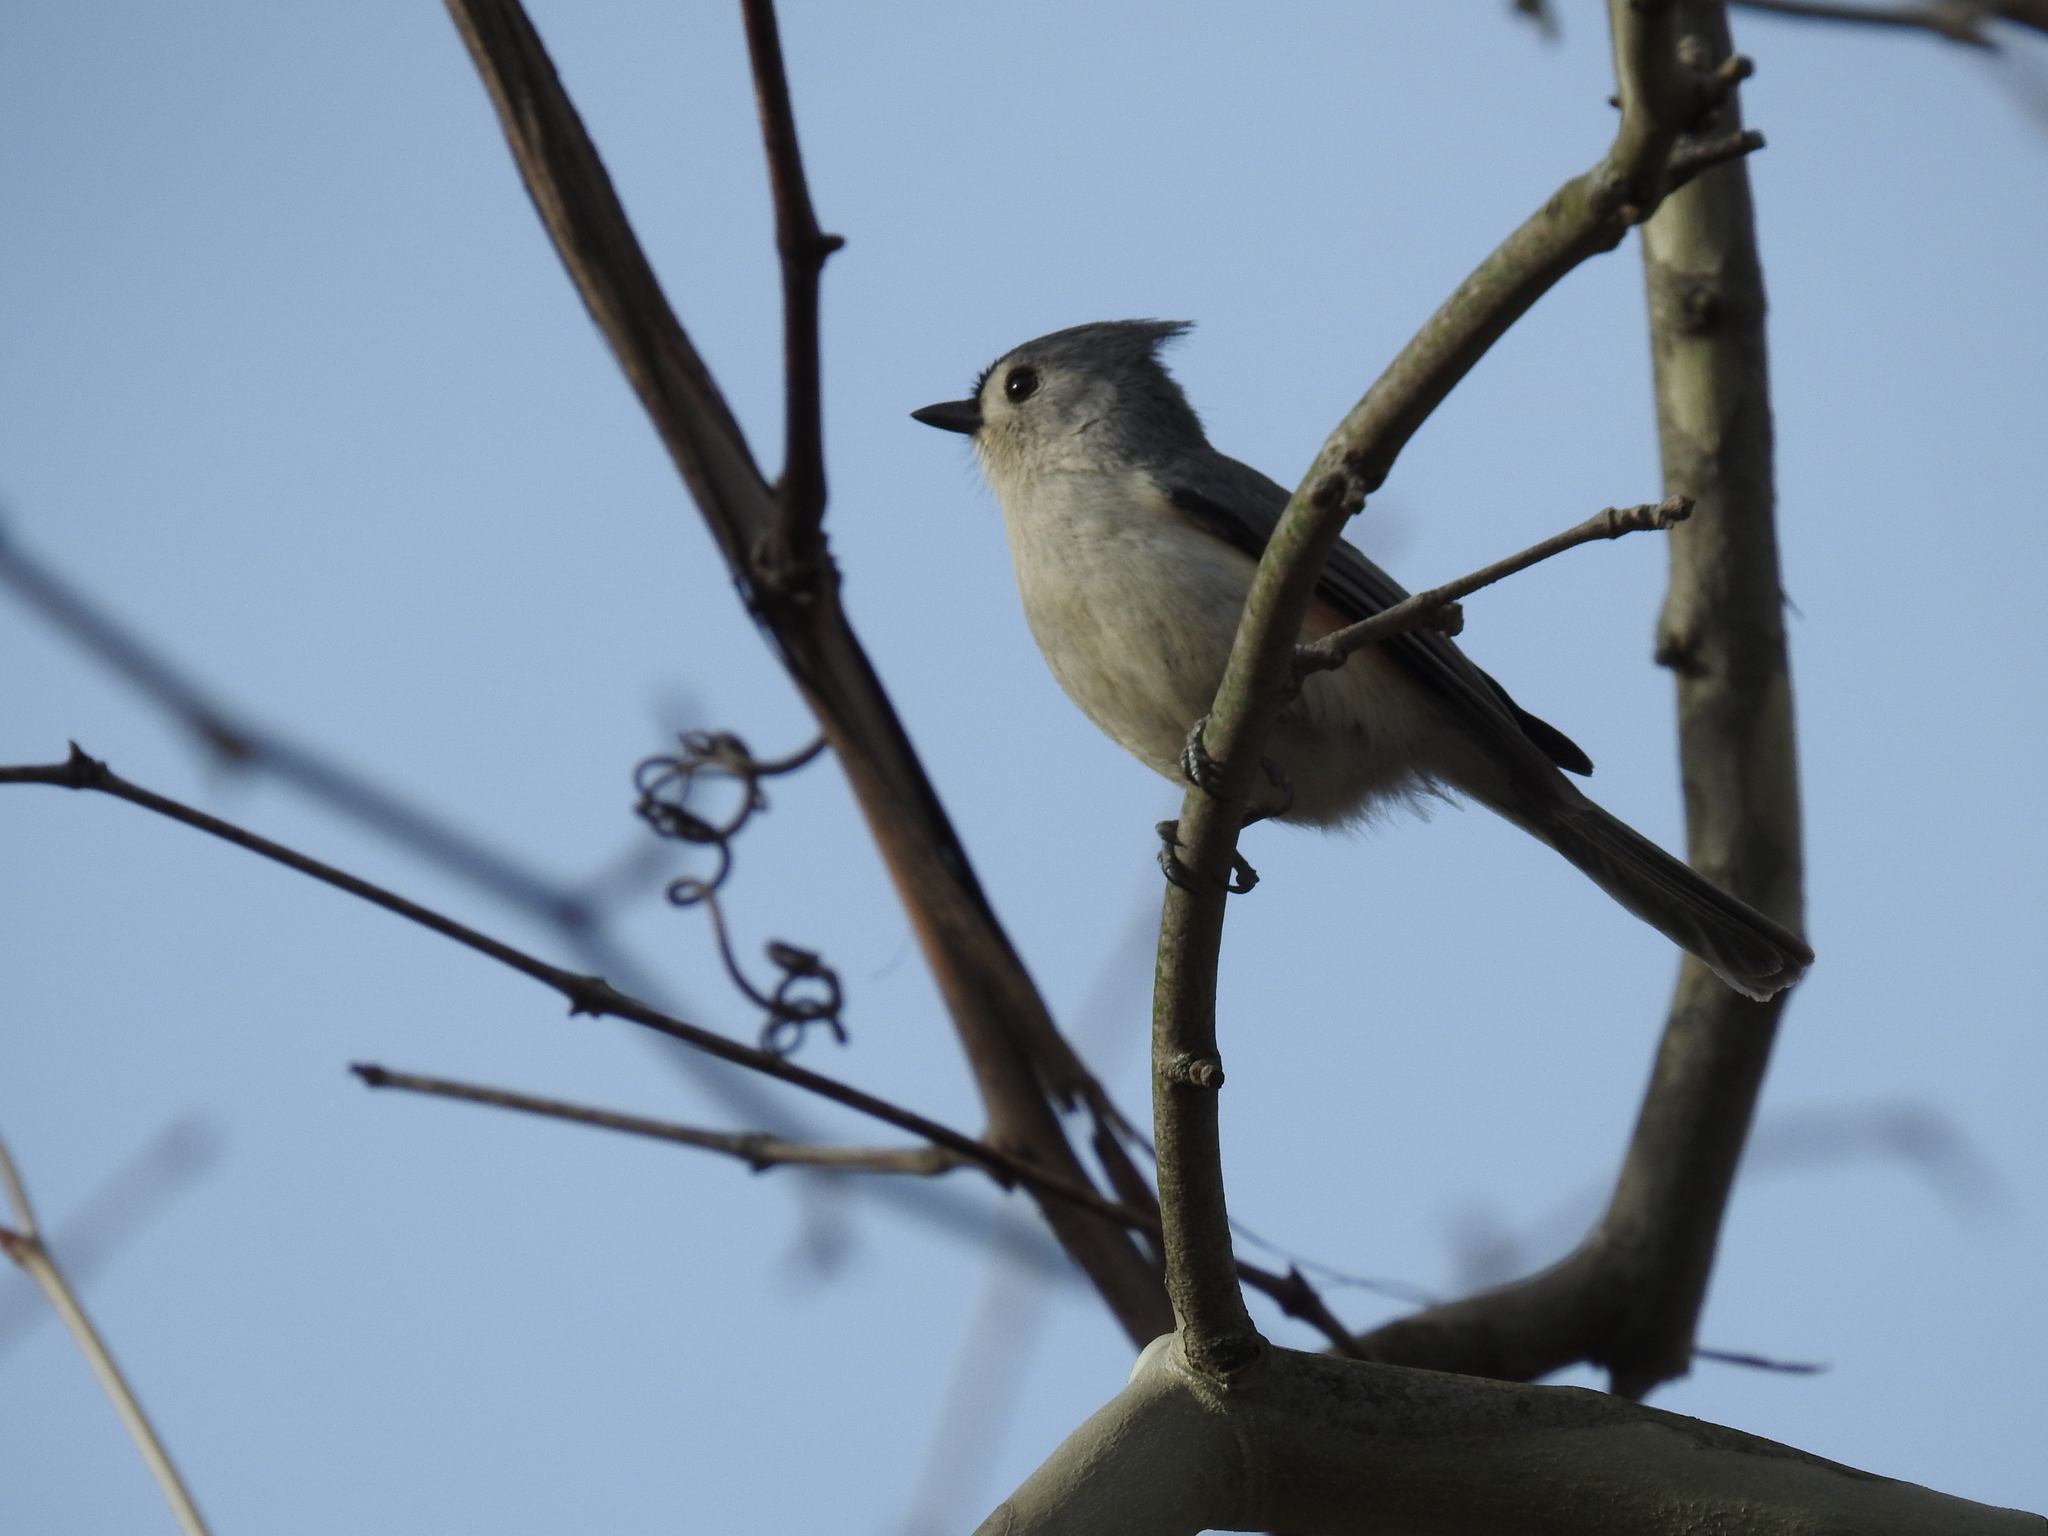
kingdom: Animalia
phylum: Chordata
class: Aves
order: Passeriformes
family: Paridae
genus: Baeolophus
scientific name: Baeolophus bicolor
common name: Tufted titmouse
